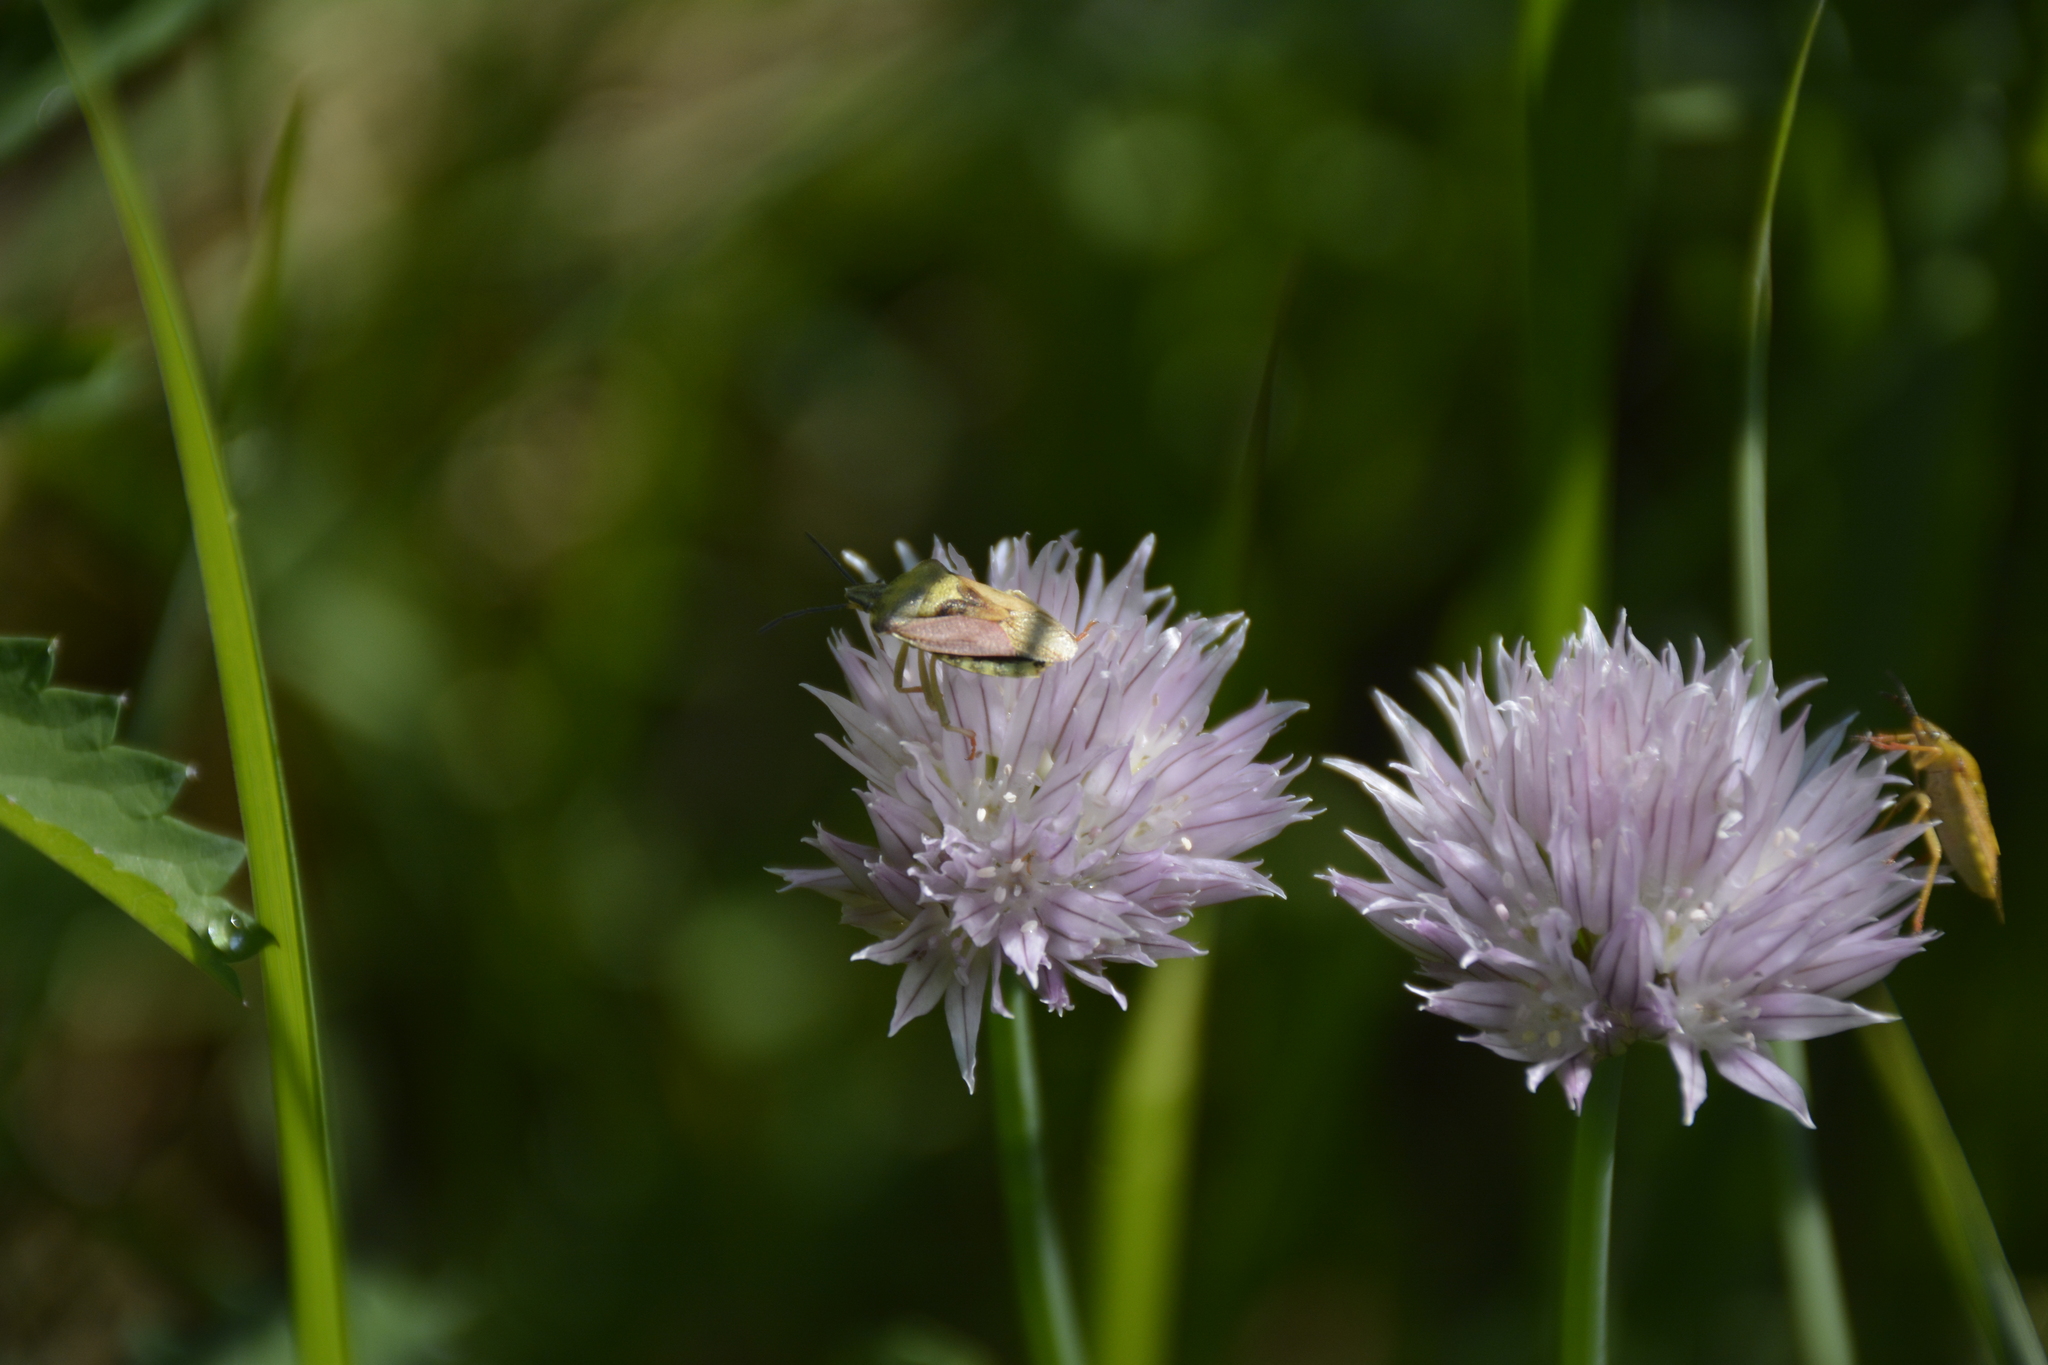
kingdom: Plantae
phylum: Tracheophyta
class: Liliopsida
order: Asparagales
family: Amaryllidaceae
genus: Allium
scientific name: Allium schoenoprasum
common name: Chives
